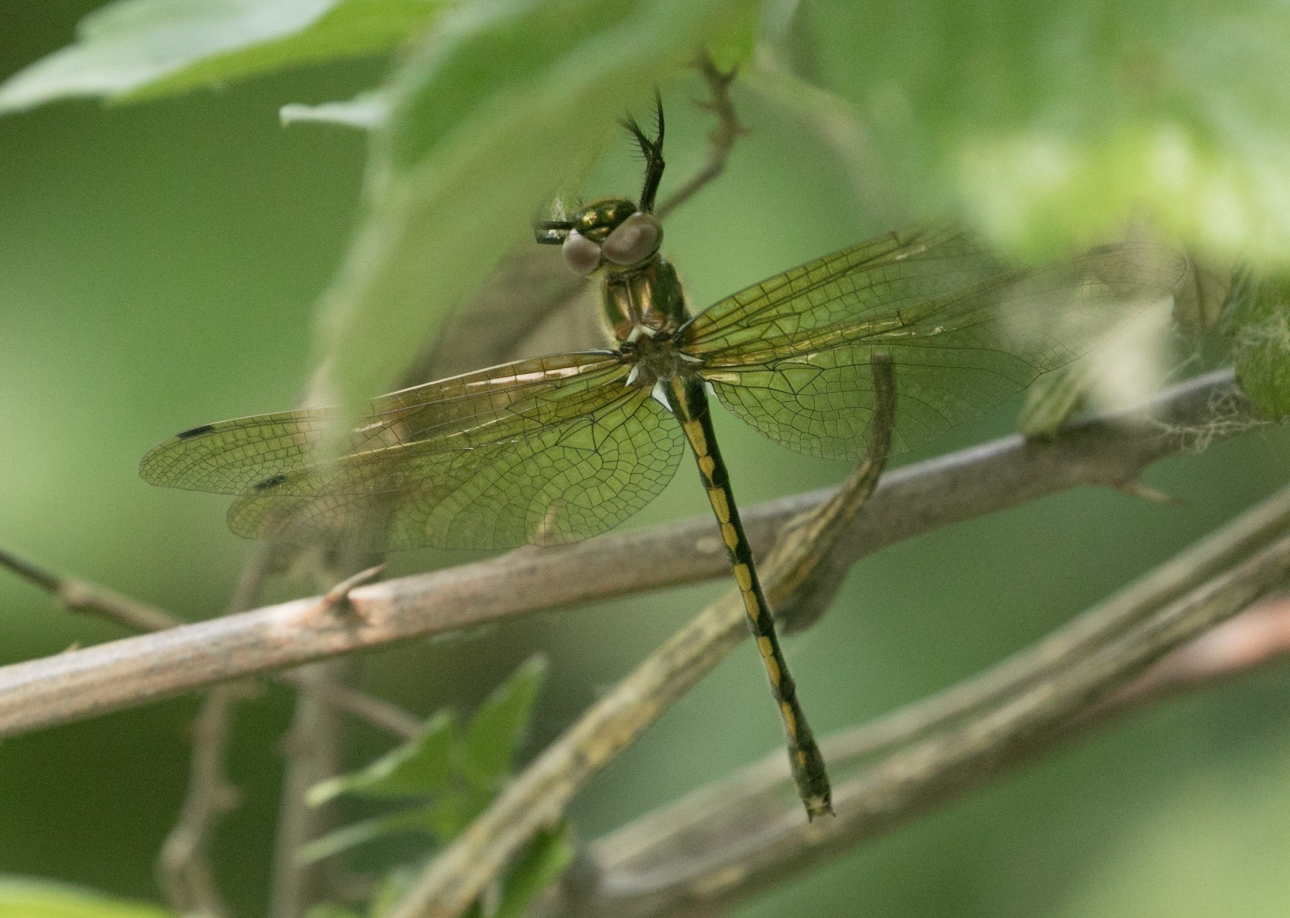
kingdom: Animalia
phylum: Arthropoda
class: Insecta
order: Odonata
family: Corduliidae
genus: Oxygastra
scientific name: Oxygastra curtisii
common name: Orange-spotted emerald
